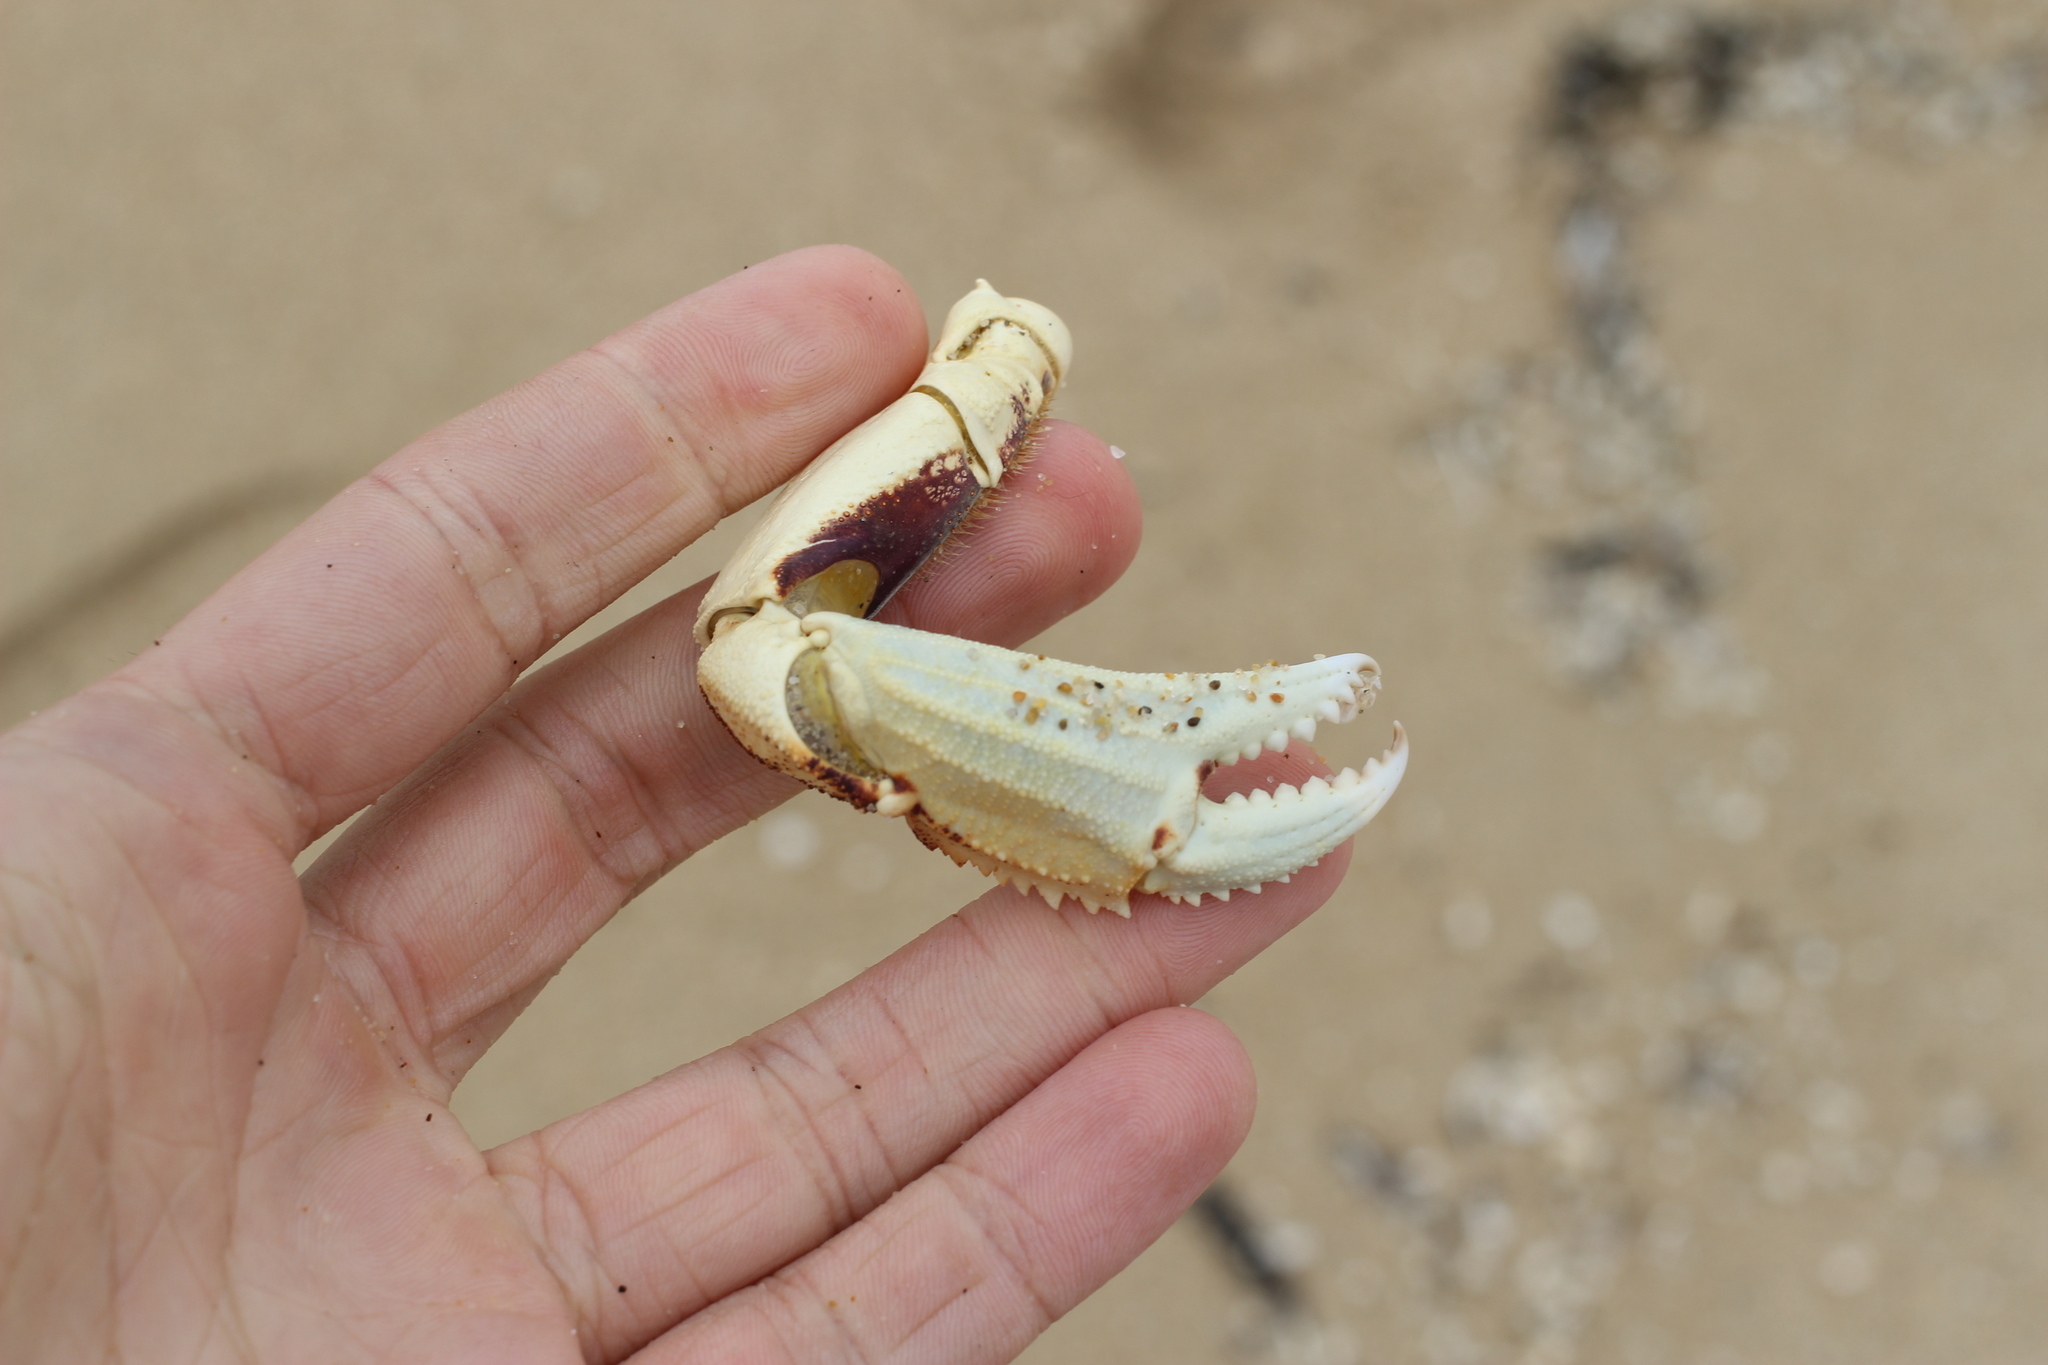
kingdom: Animalia
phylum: Arthropoda
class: Malacostraca
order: Decapoda
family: Cancridae
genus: Metacarcinus
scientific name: Metacarcinus magister
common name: Californian crab
